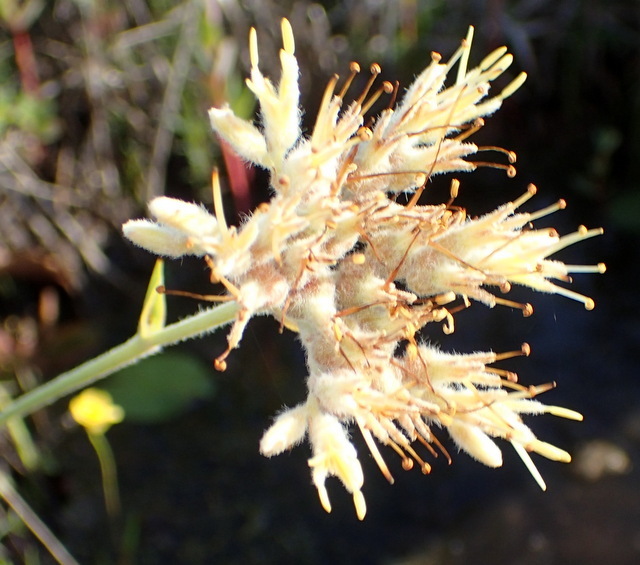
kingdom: Plantae
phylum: Tracheophyta
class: Liliopsida
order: Commelinales
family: Haemodoraceae
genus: Lachnanthes
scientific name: Lachnanthes caroliana
